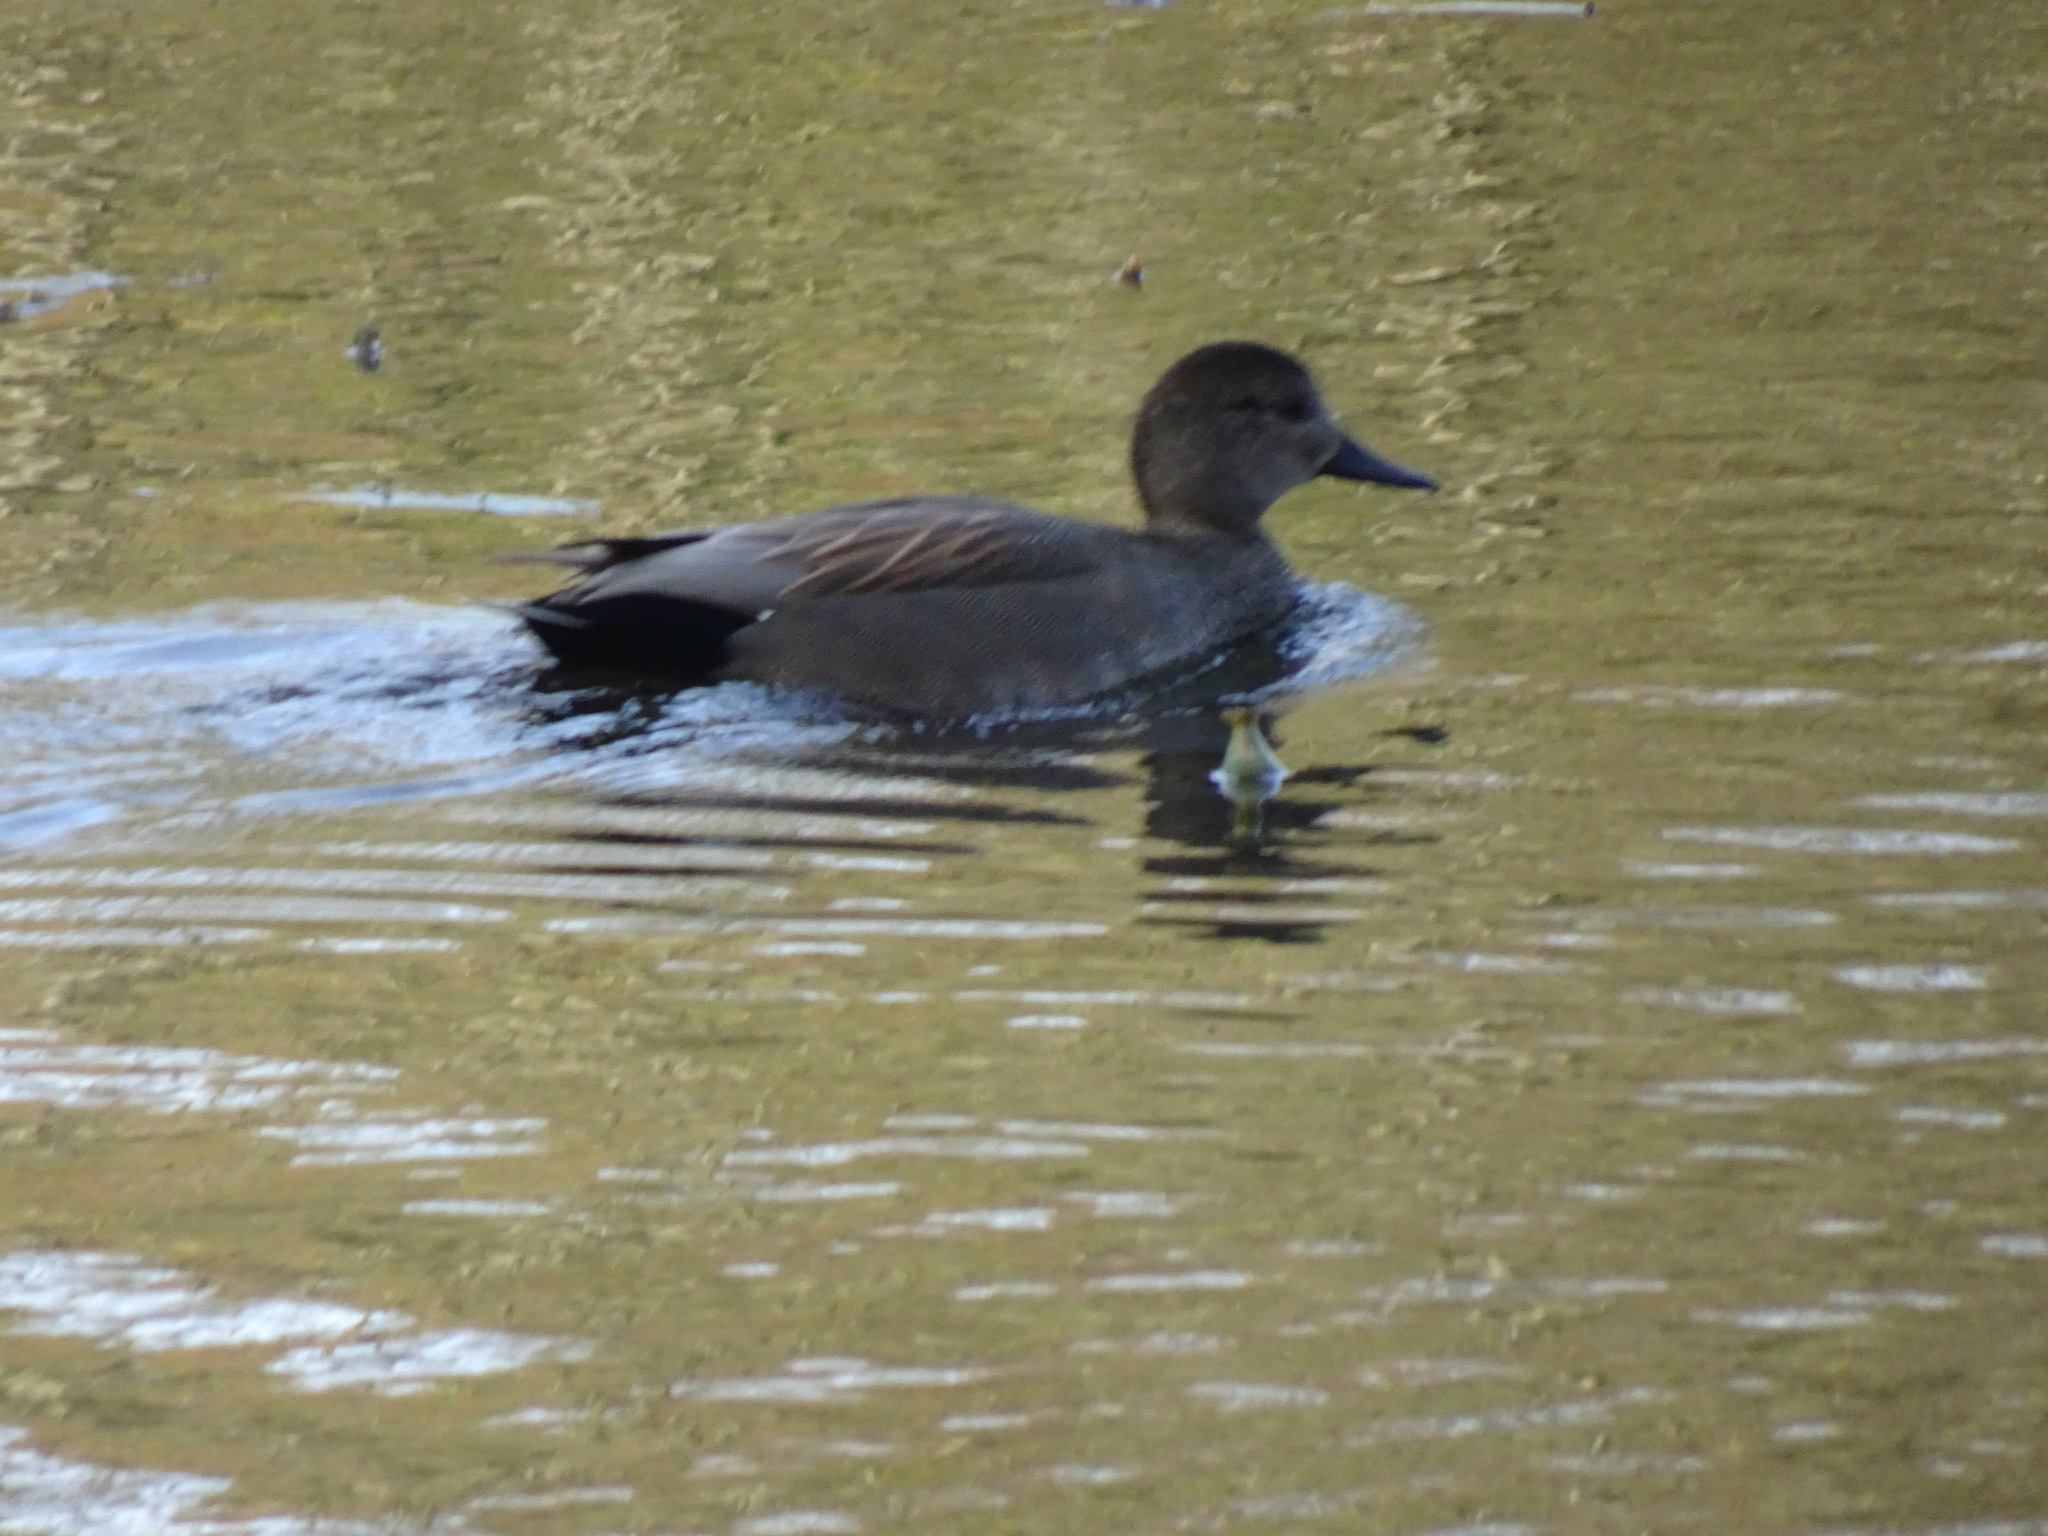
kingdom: Animalia
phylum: Chordata
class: Aves
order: Anseriformes
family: Anatidae
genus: Mareca
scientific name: Mareca strepera
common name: Gadwall
